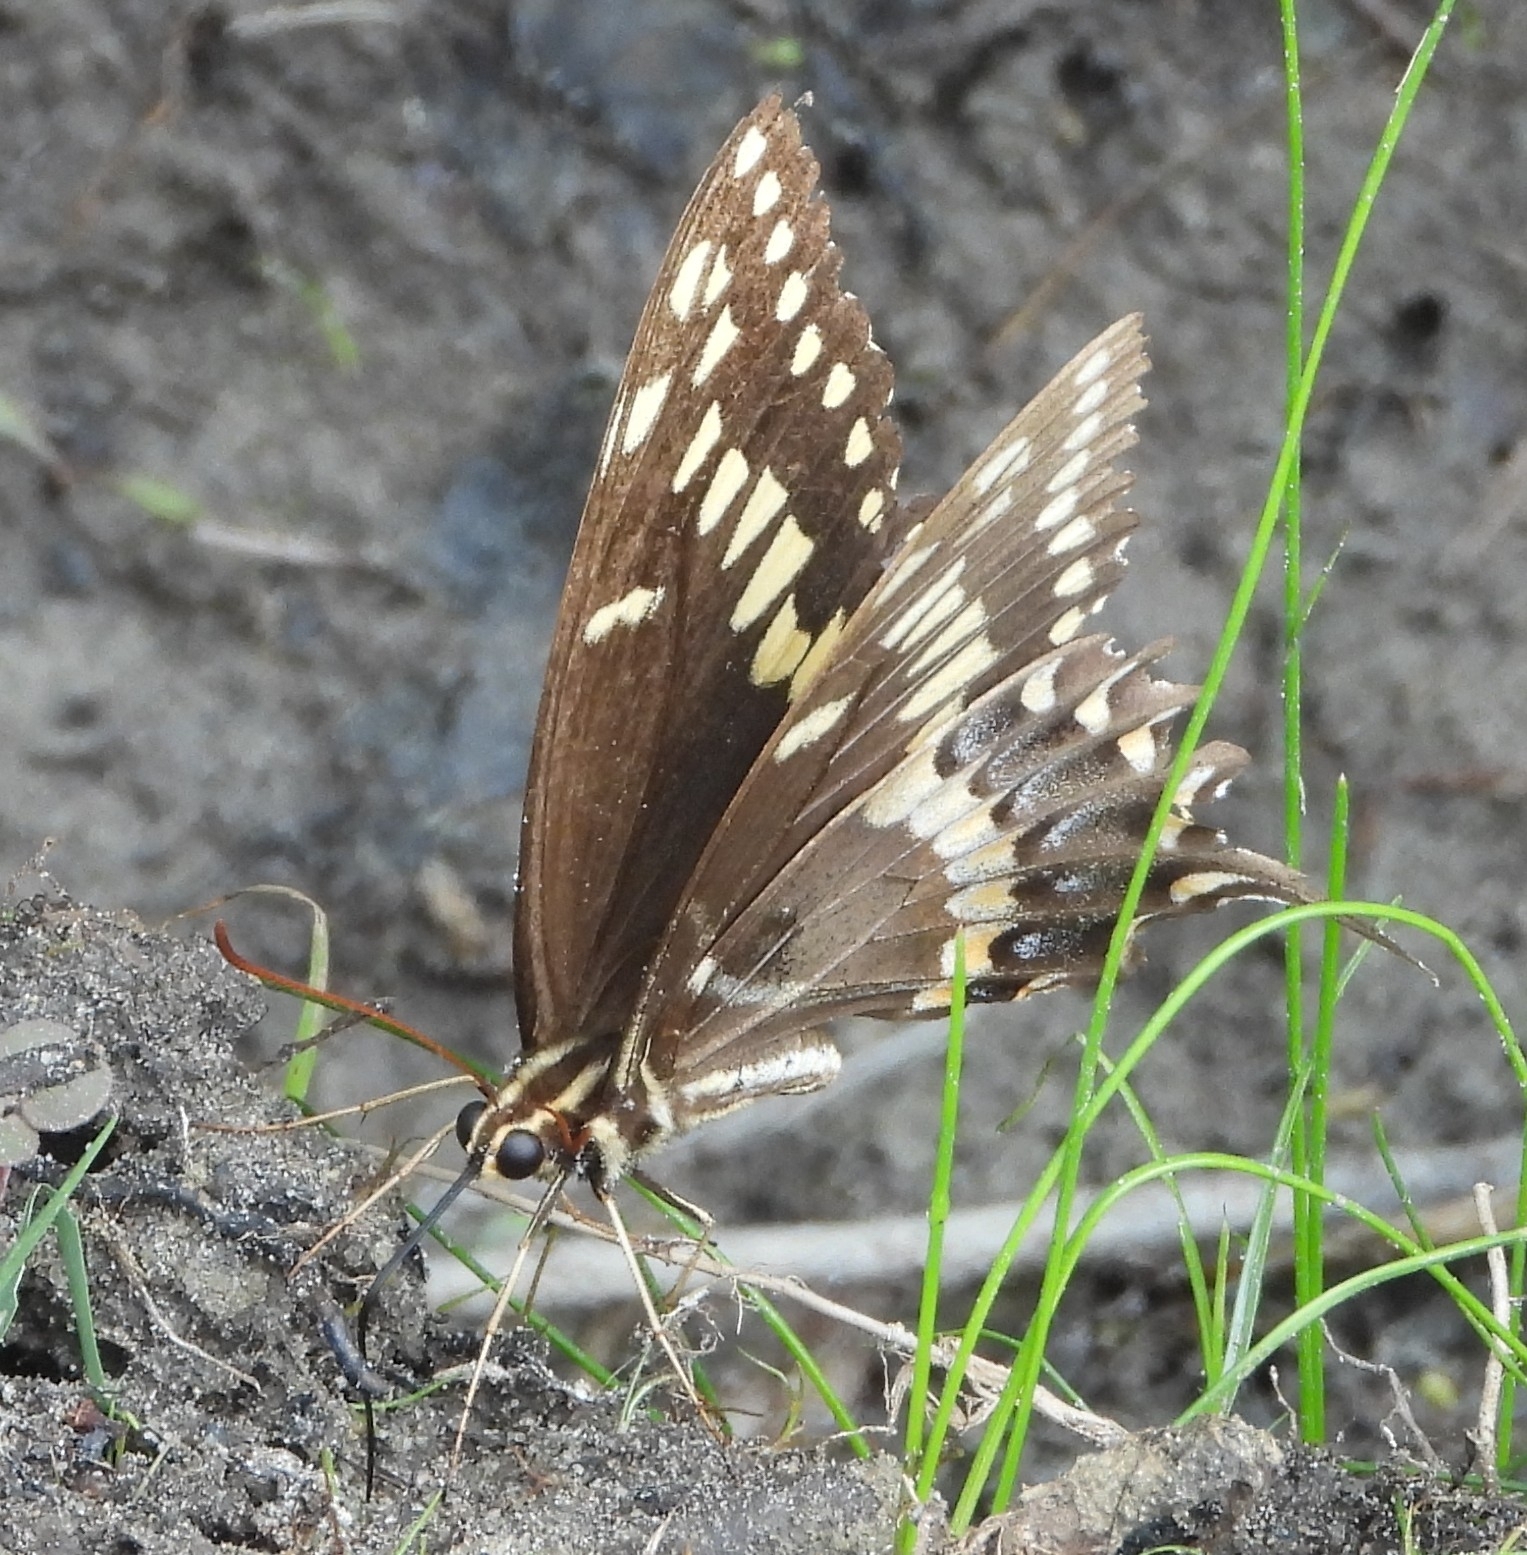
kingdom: Animalia
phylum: Arthropoda
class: Insecta
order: Lepidoptera
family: Papilionidae
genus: Papilio
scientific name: Papilio palamedes
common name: Palamedes swallowtail
